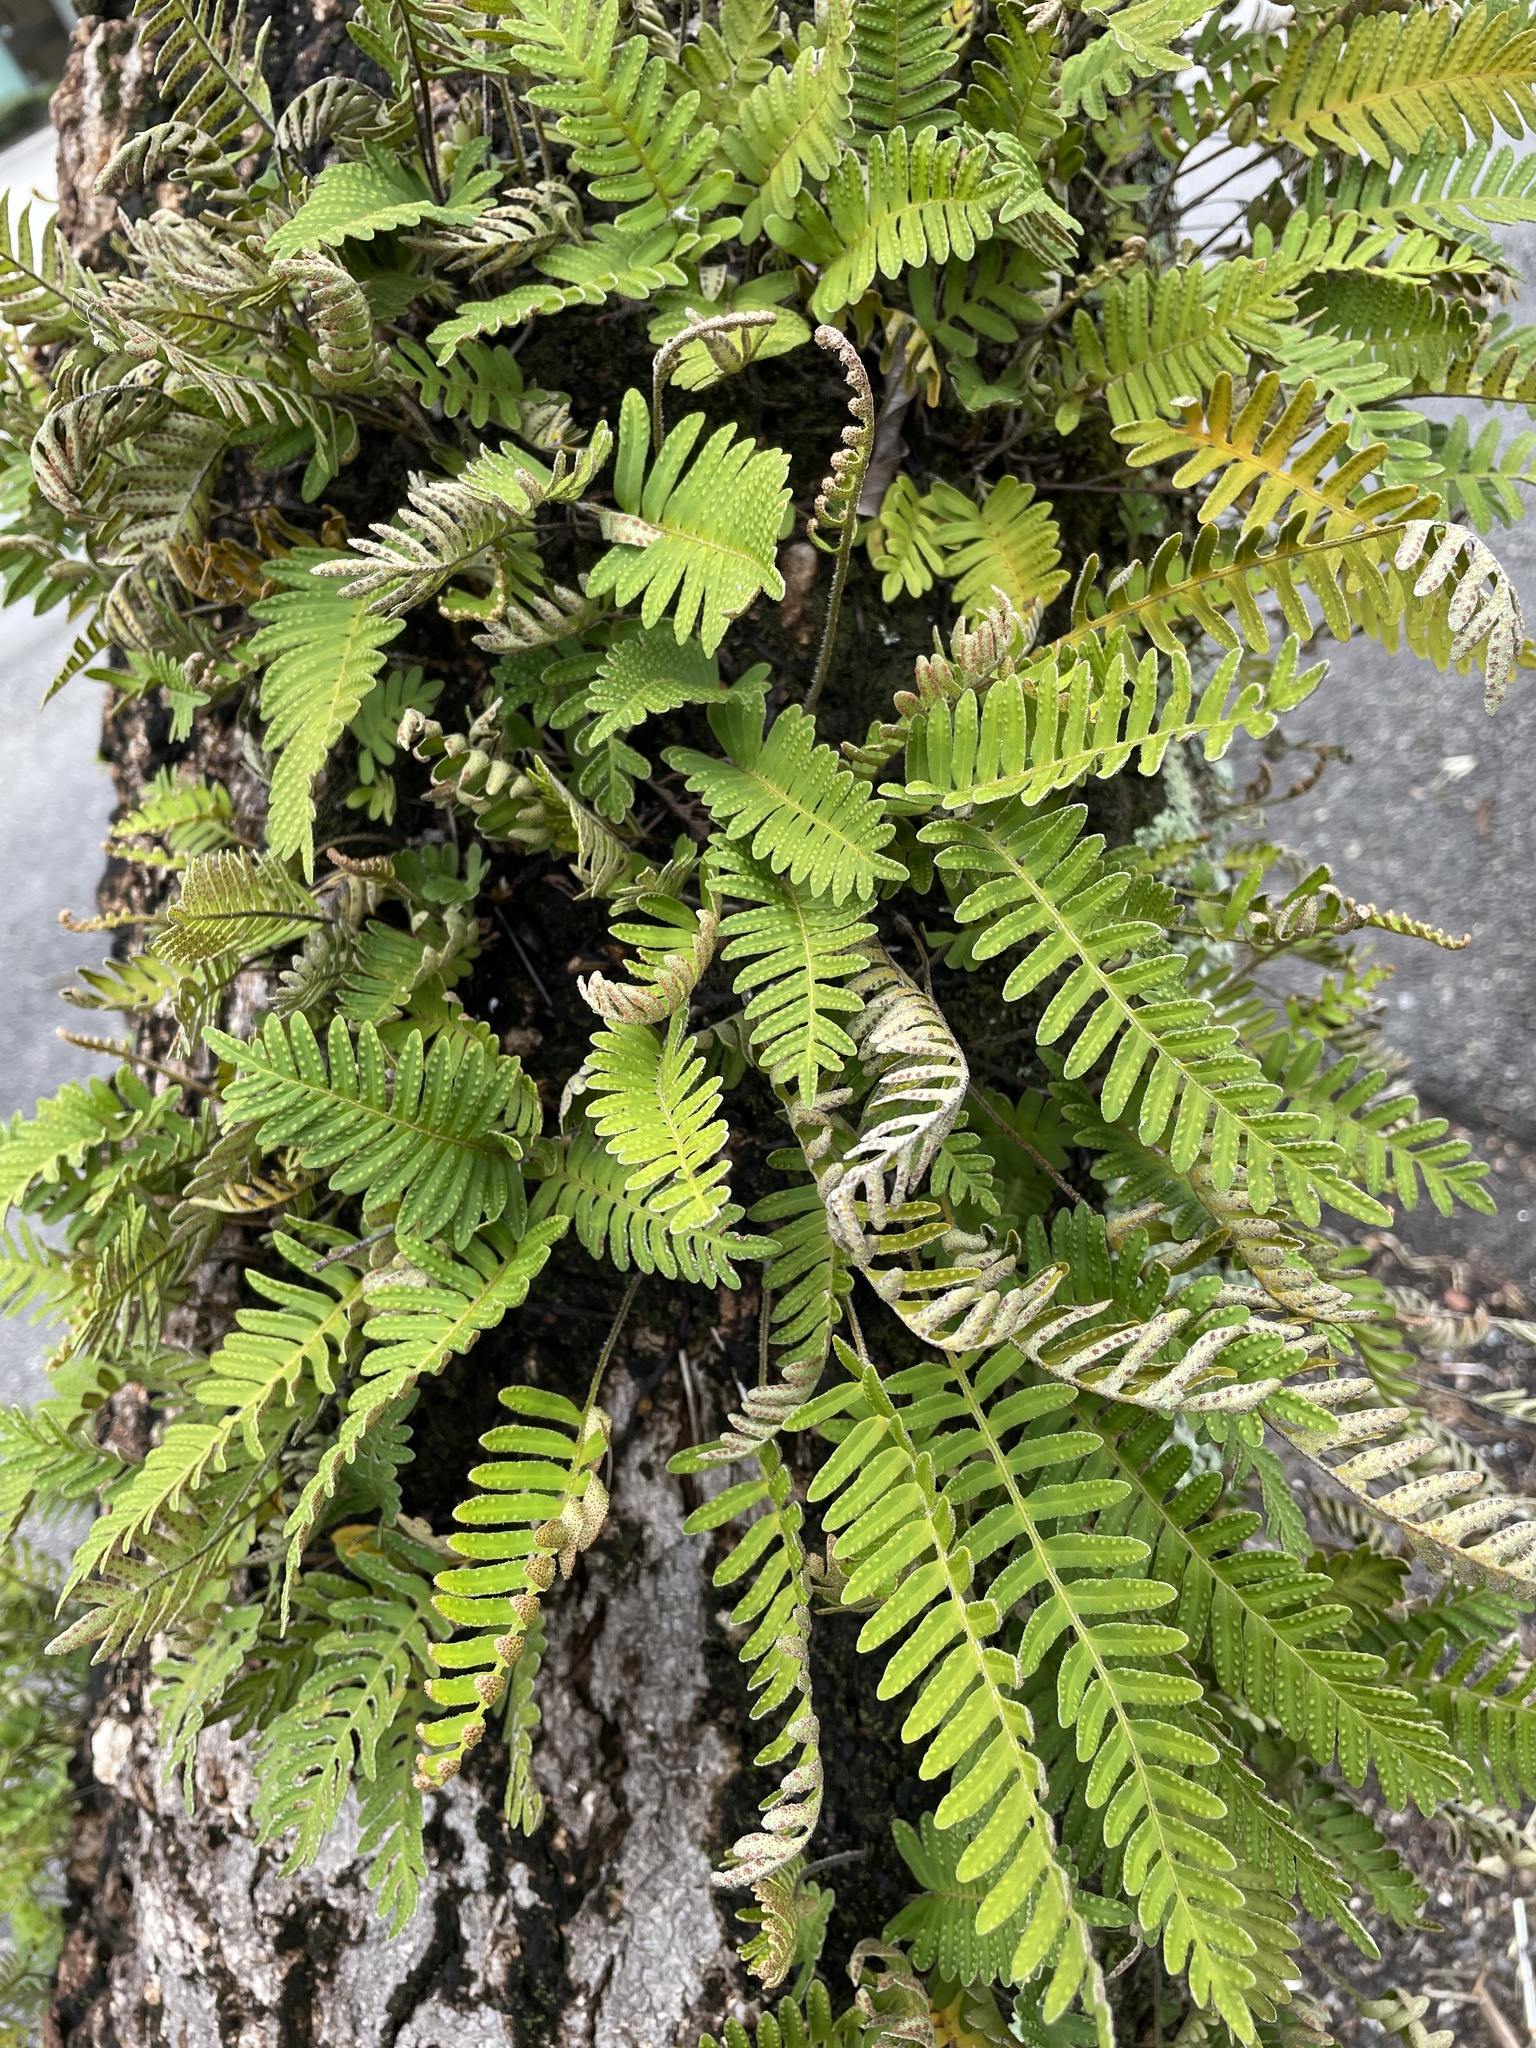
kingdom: Plantae
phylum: Tracheophyta
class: Polypodiopsida
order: Polypodiales
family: Polypodiaceae
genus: Pleopeltis
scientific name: Pleopeltis michauxiana
